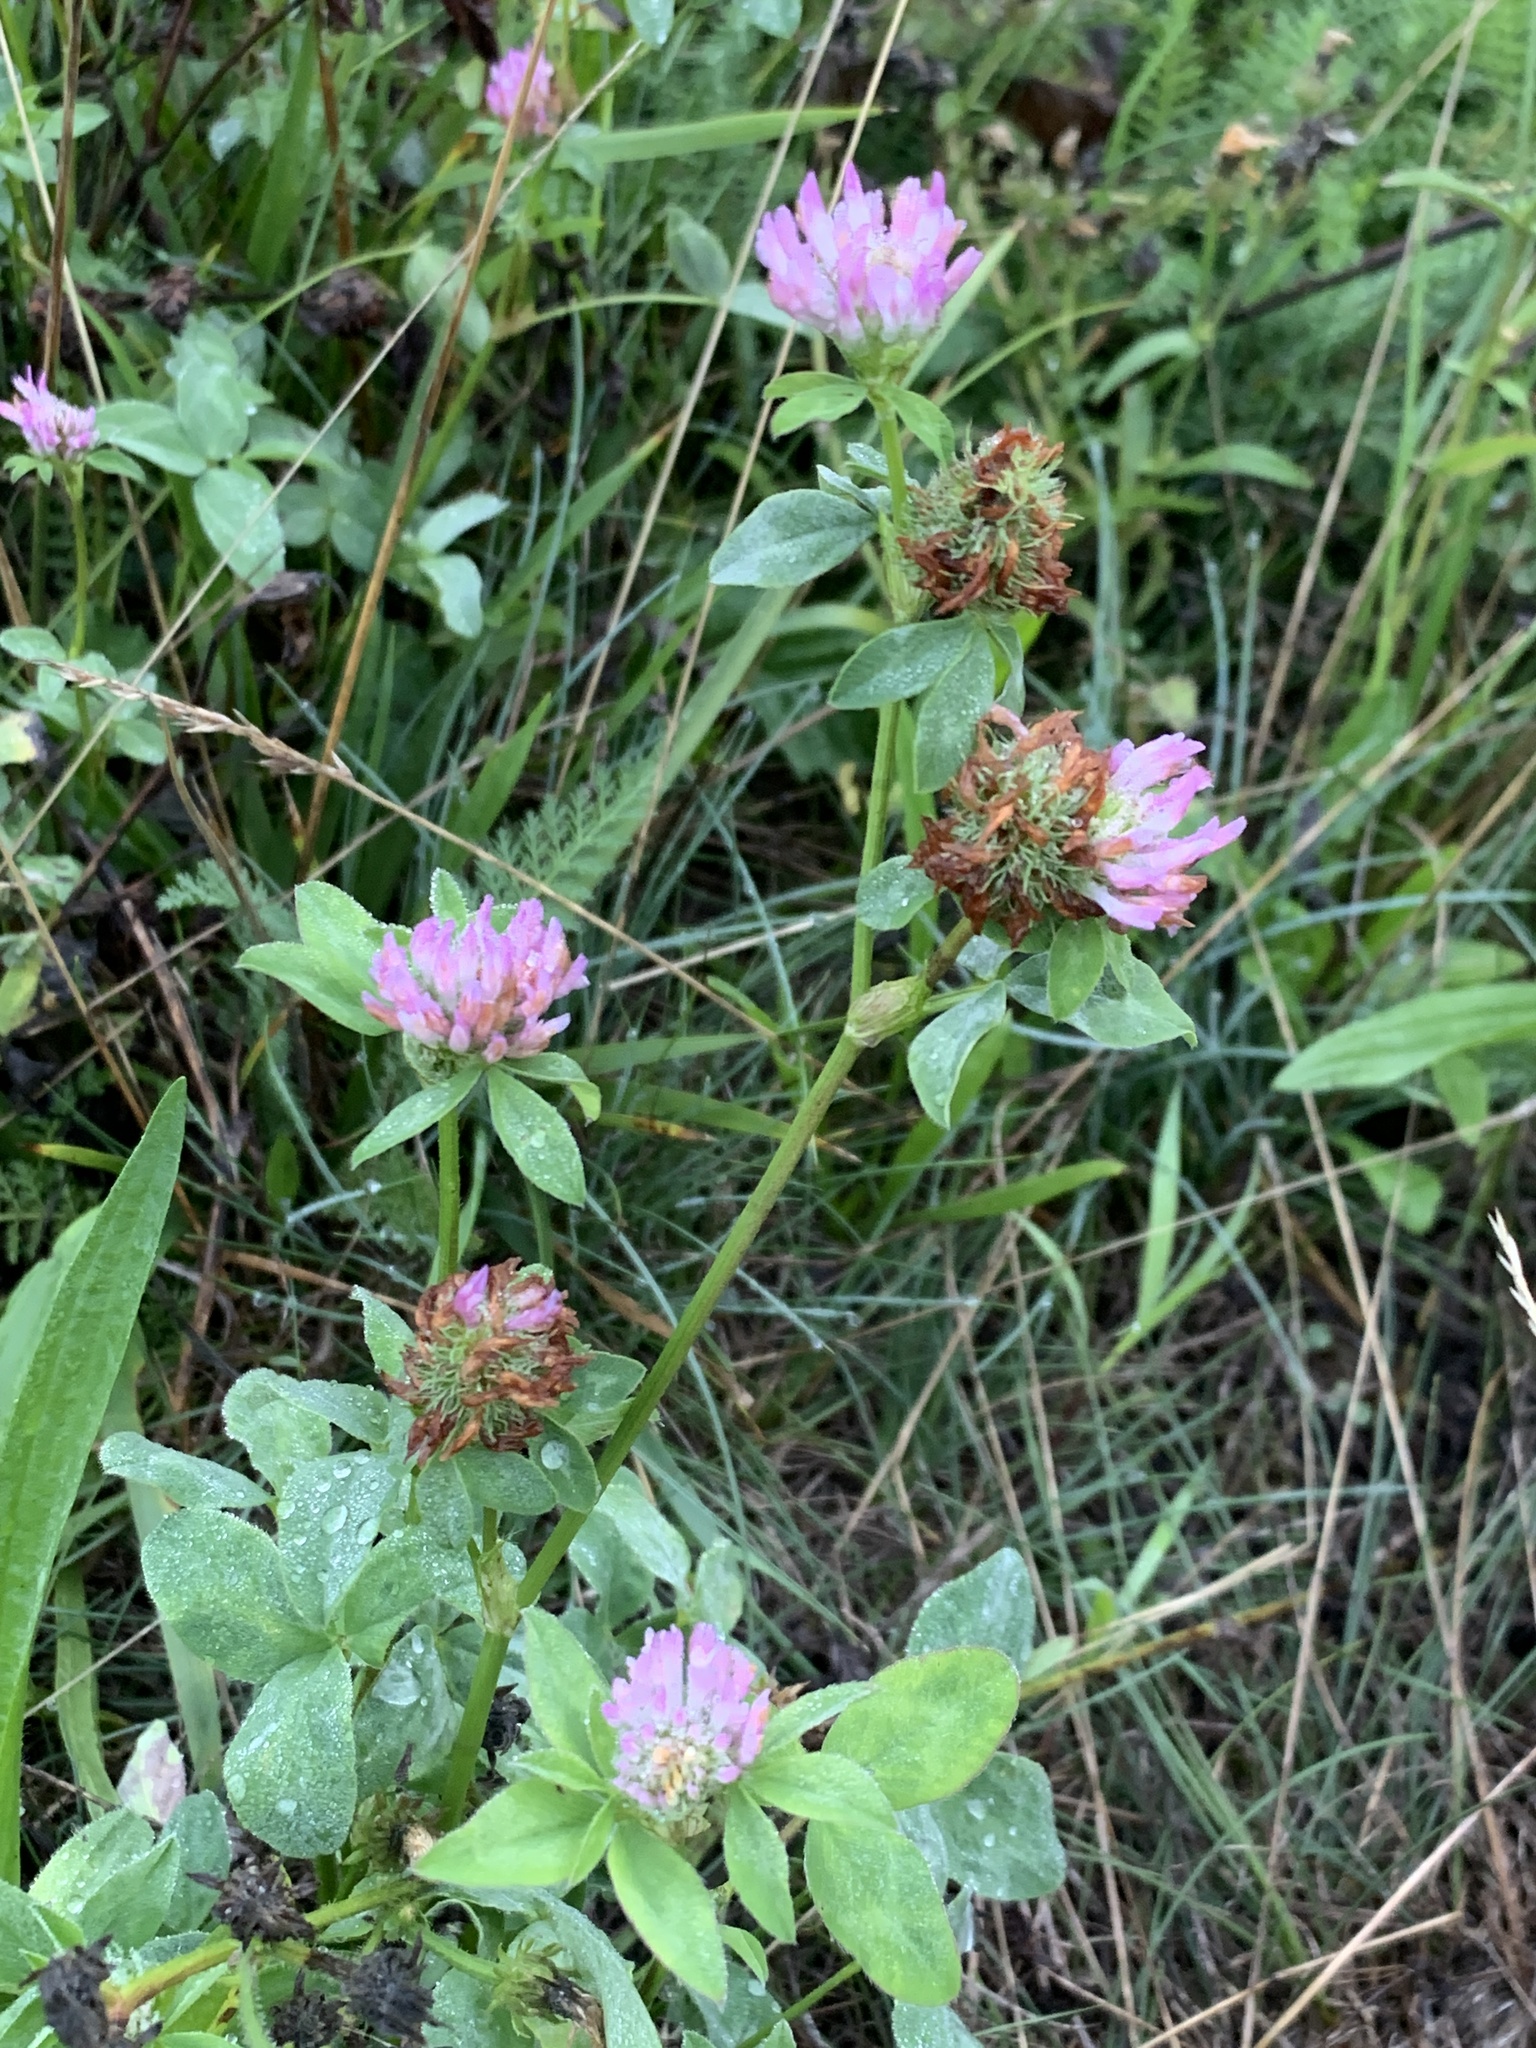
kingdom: Plantae
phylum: Tracheophyta
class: Magnoliopsida
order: Fabales
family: Fabaceae
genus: Trifolium
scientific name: Trifolium pratense
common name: Red clover
